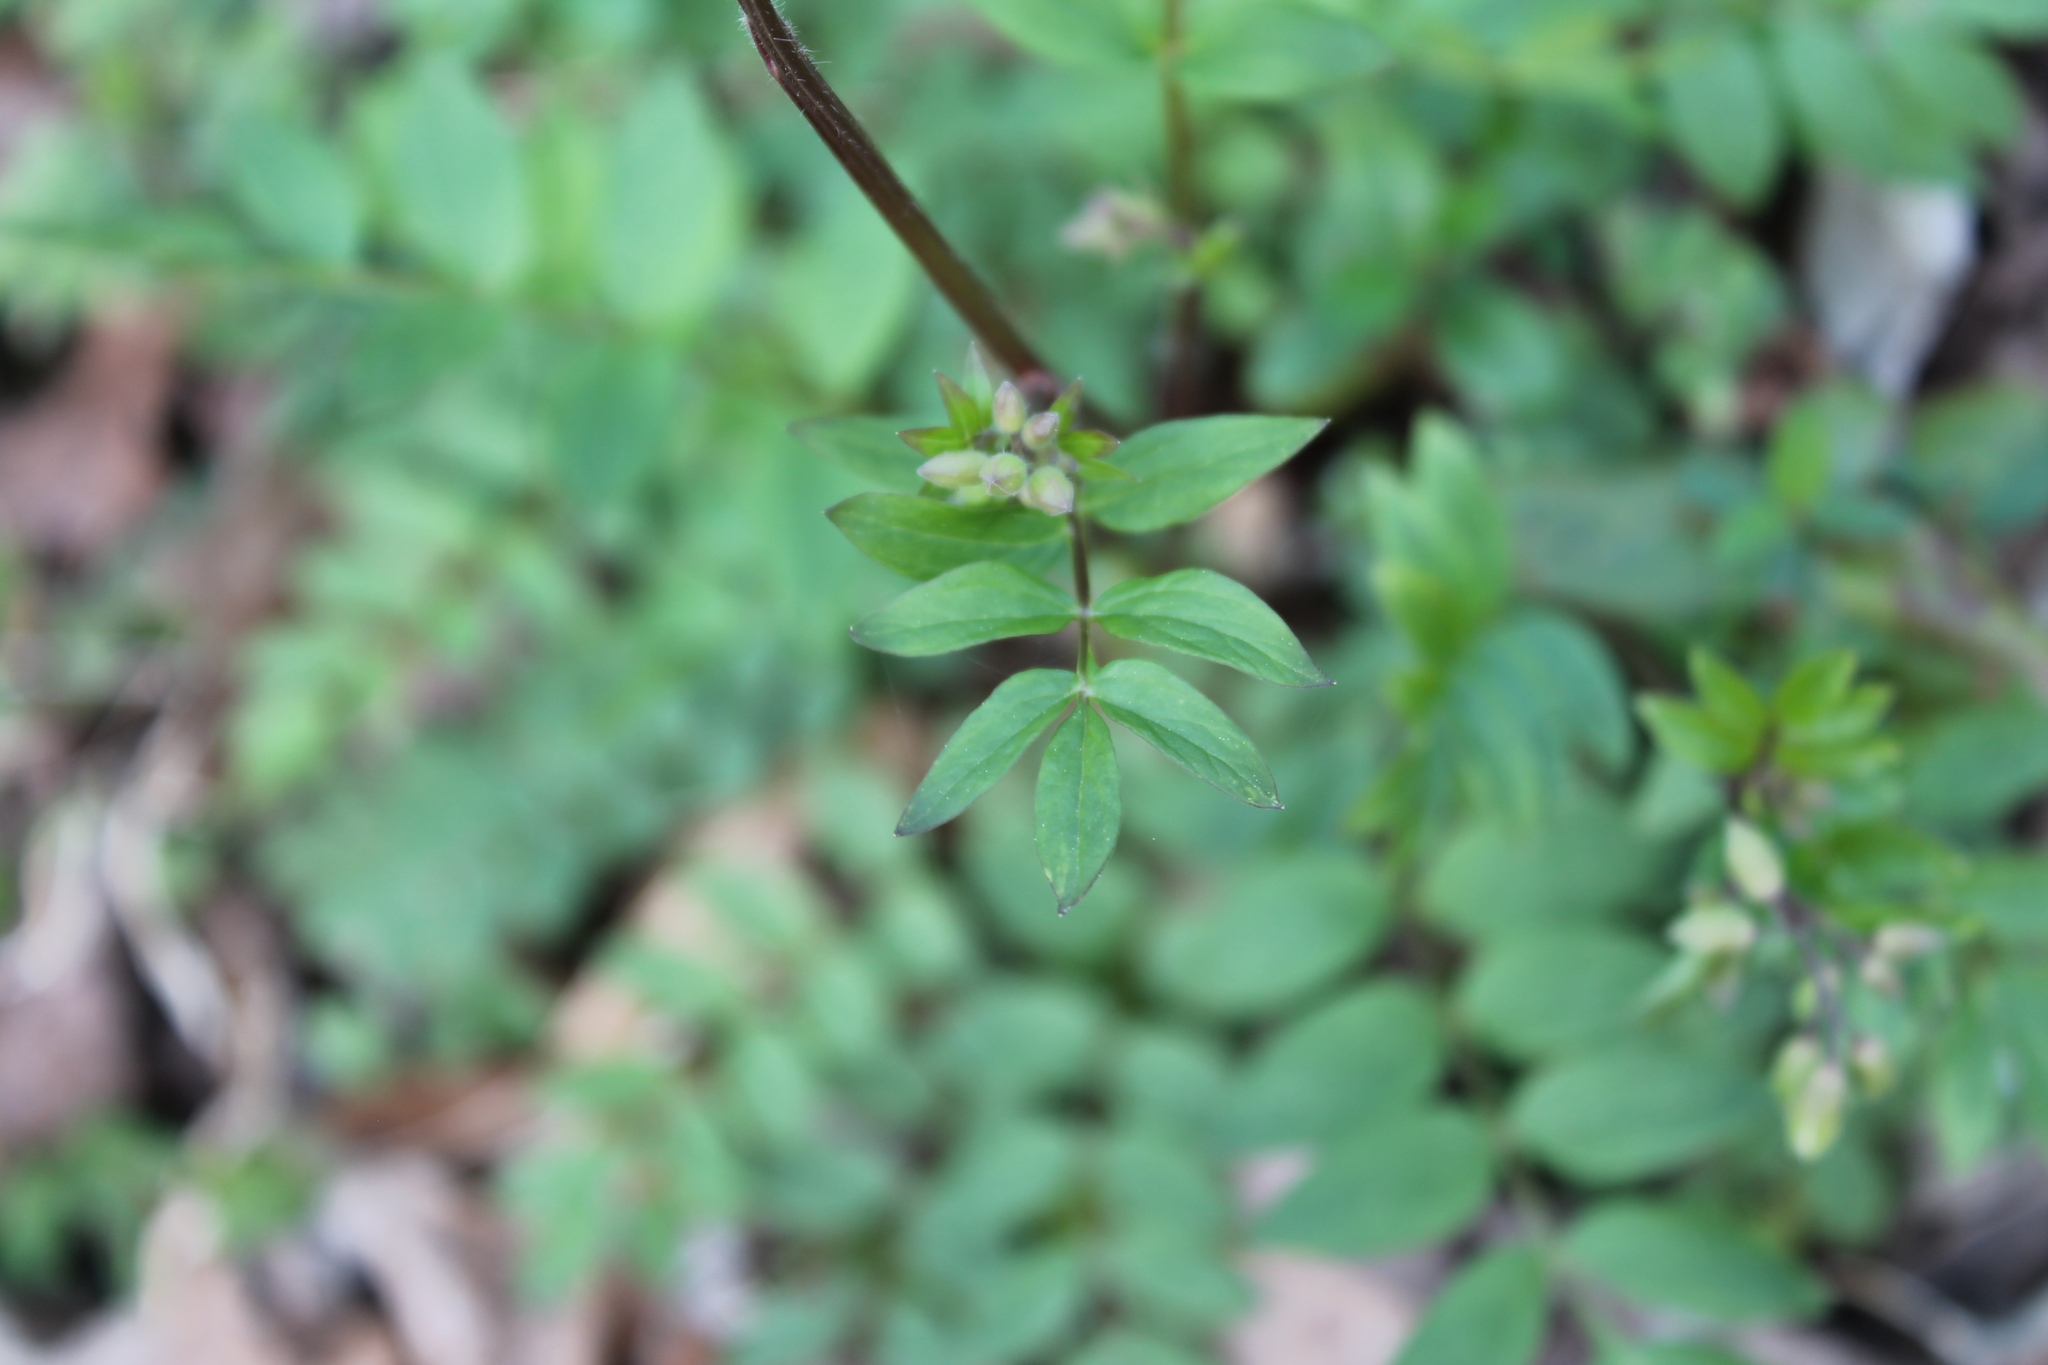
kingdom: Plantae
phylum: Tracheophyta
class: Magnoliopsida
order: Ericales
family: Polemoniaceae
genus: Polemonium
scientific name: Polemonium reptans
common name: Creeping jacob's-ladder
